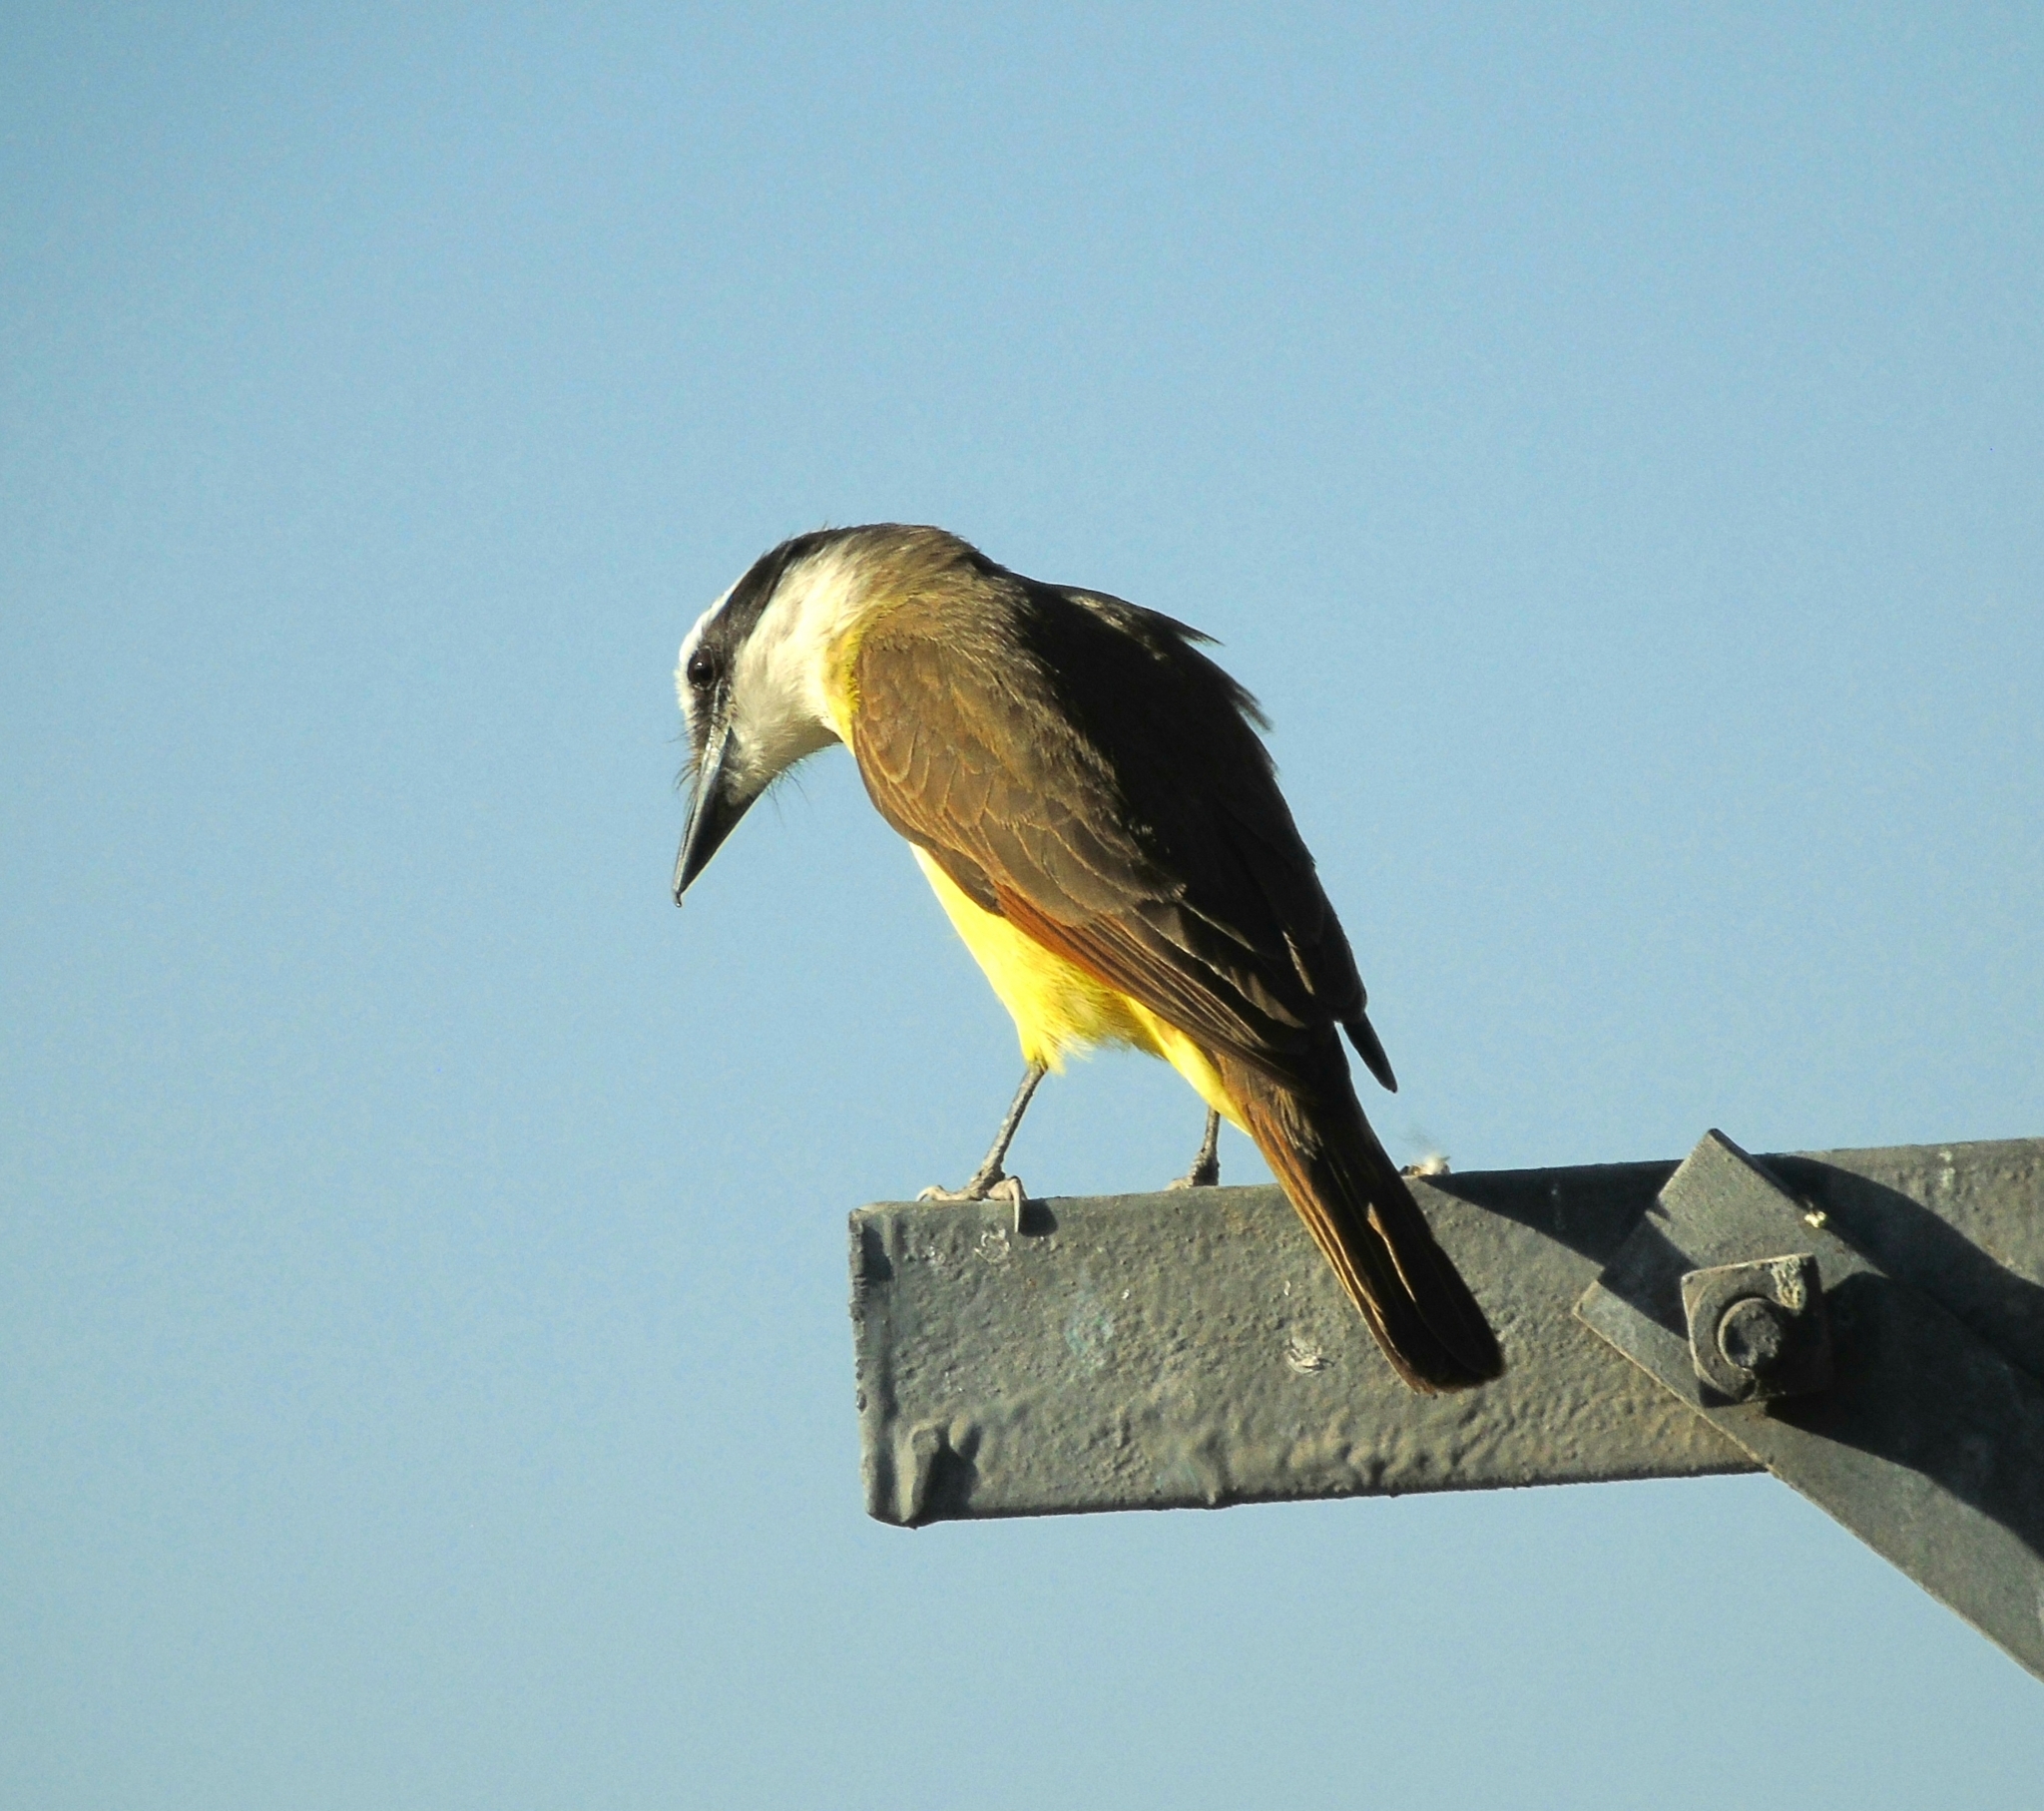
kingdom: Animalia
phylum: Chordata
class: Aves
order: Passeriformes
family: Tyrannidae
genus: Pitangus
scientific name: Pitangus sulphuratus
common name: Great kiskadee
